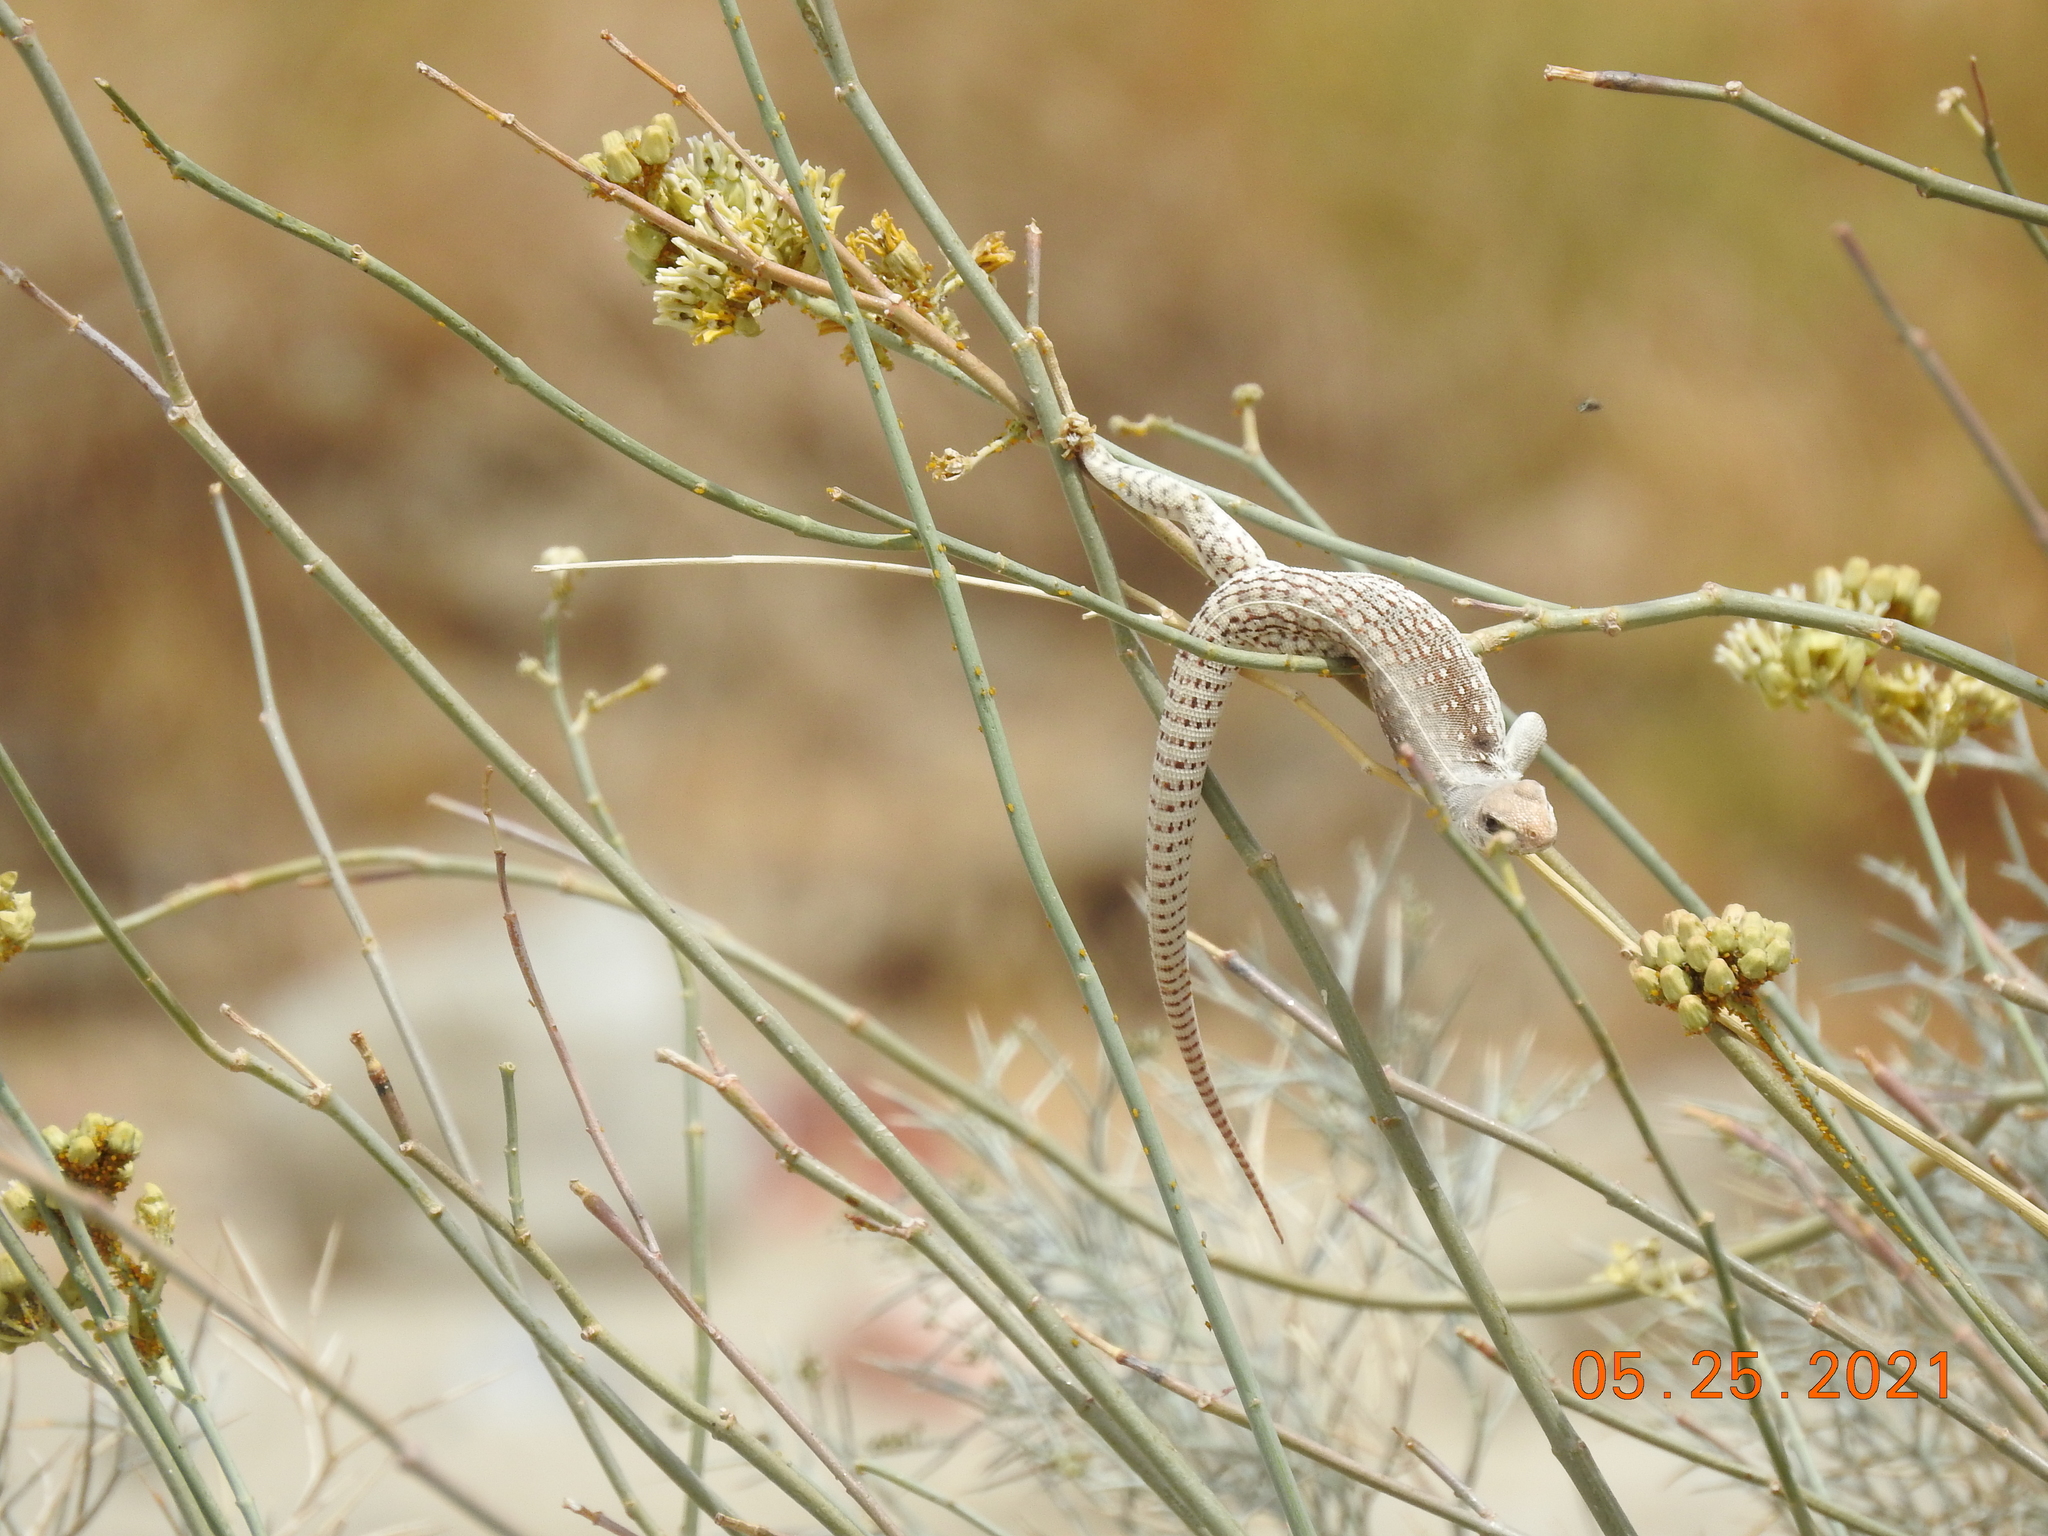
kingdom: Animalia
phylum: Chordata
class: Squamata
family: Iguanidae
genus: Dipsosaurus
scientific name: Dipsosaurus dorsalis
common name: Desert iguana
